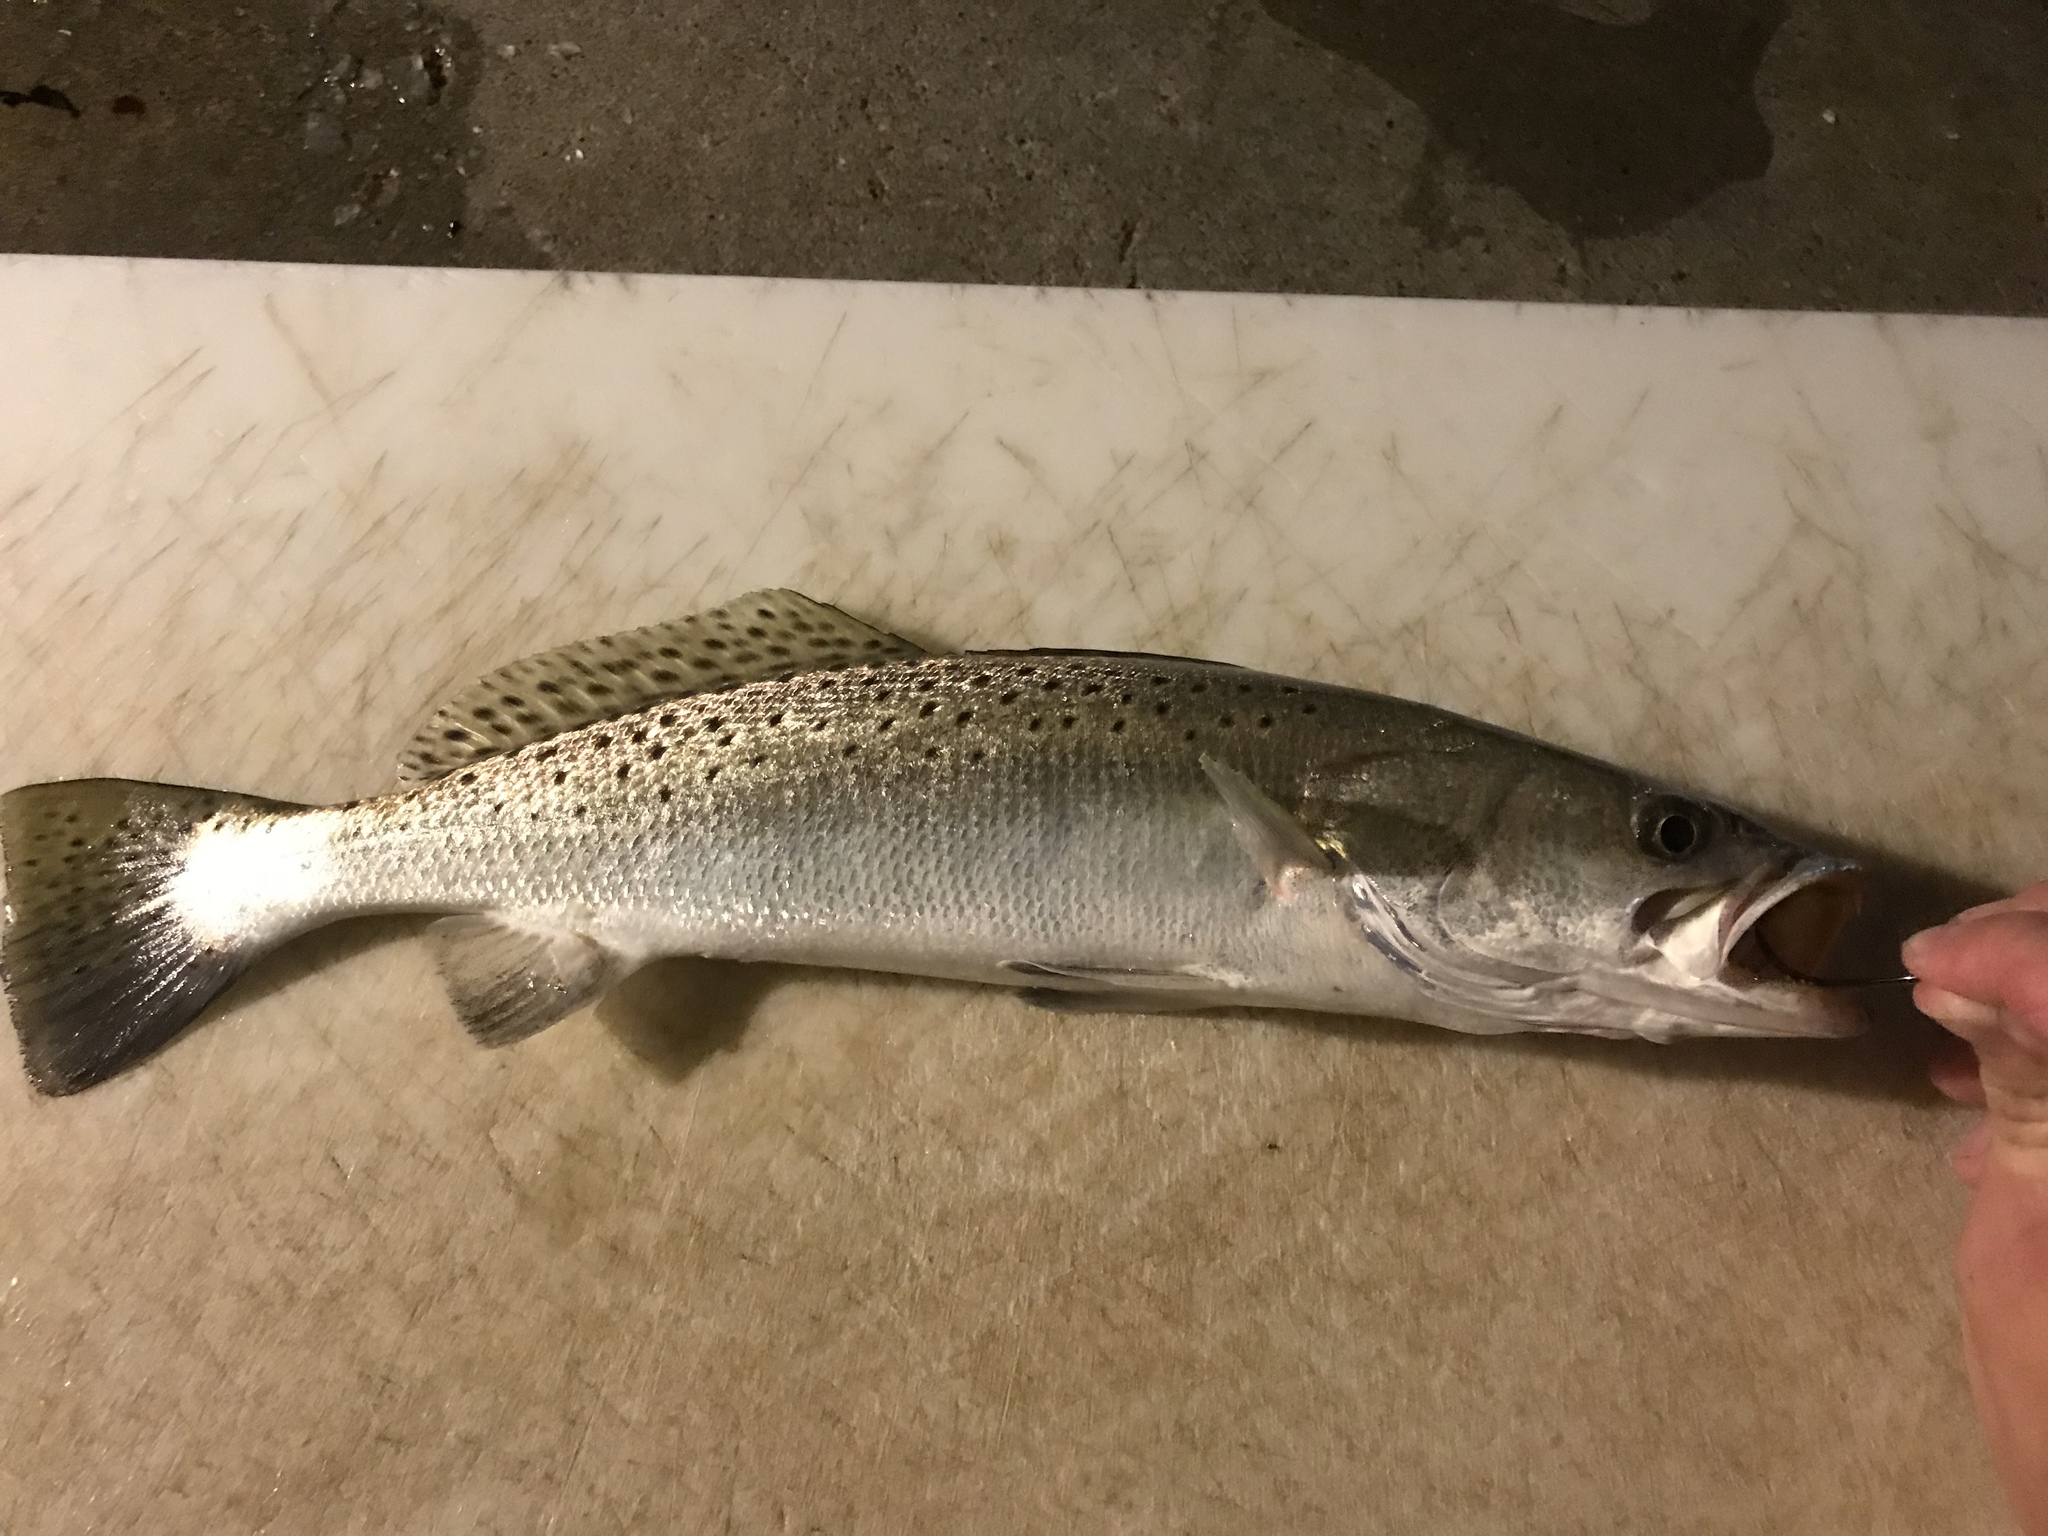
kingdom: Animalia
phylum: Chordata
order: Perciformes
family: Sciaenidae
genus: Cynoscion
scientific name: Cynoscion nebulosus
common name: Spotted seatrout
